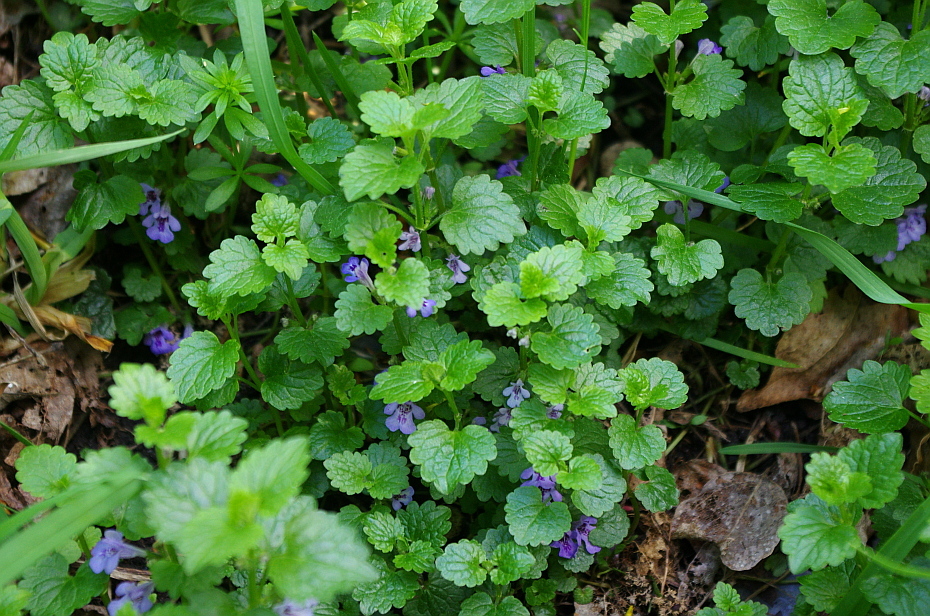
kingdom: Plantae
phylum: Tracheophyta
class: Magnoliopsida
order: Lamiales
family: Lamiaceae
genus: Glechoma
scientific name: Glechoma hederacea
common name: Ground ivy
